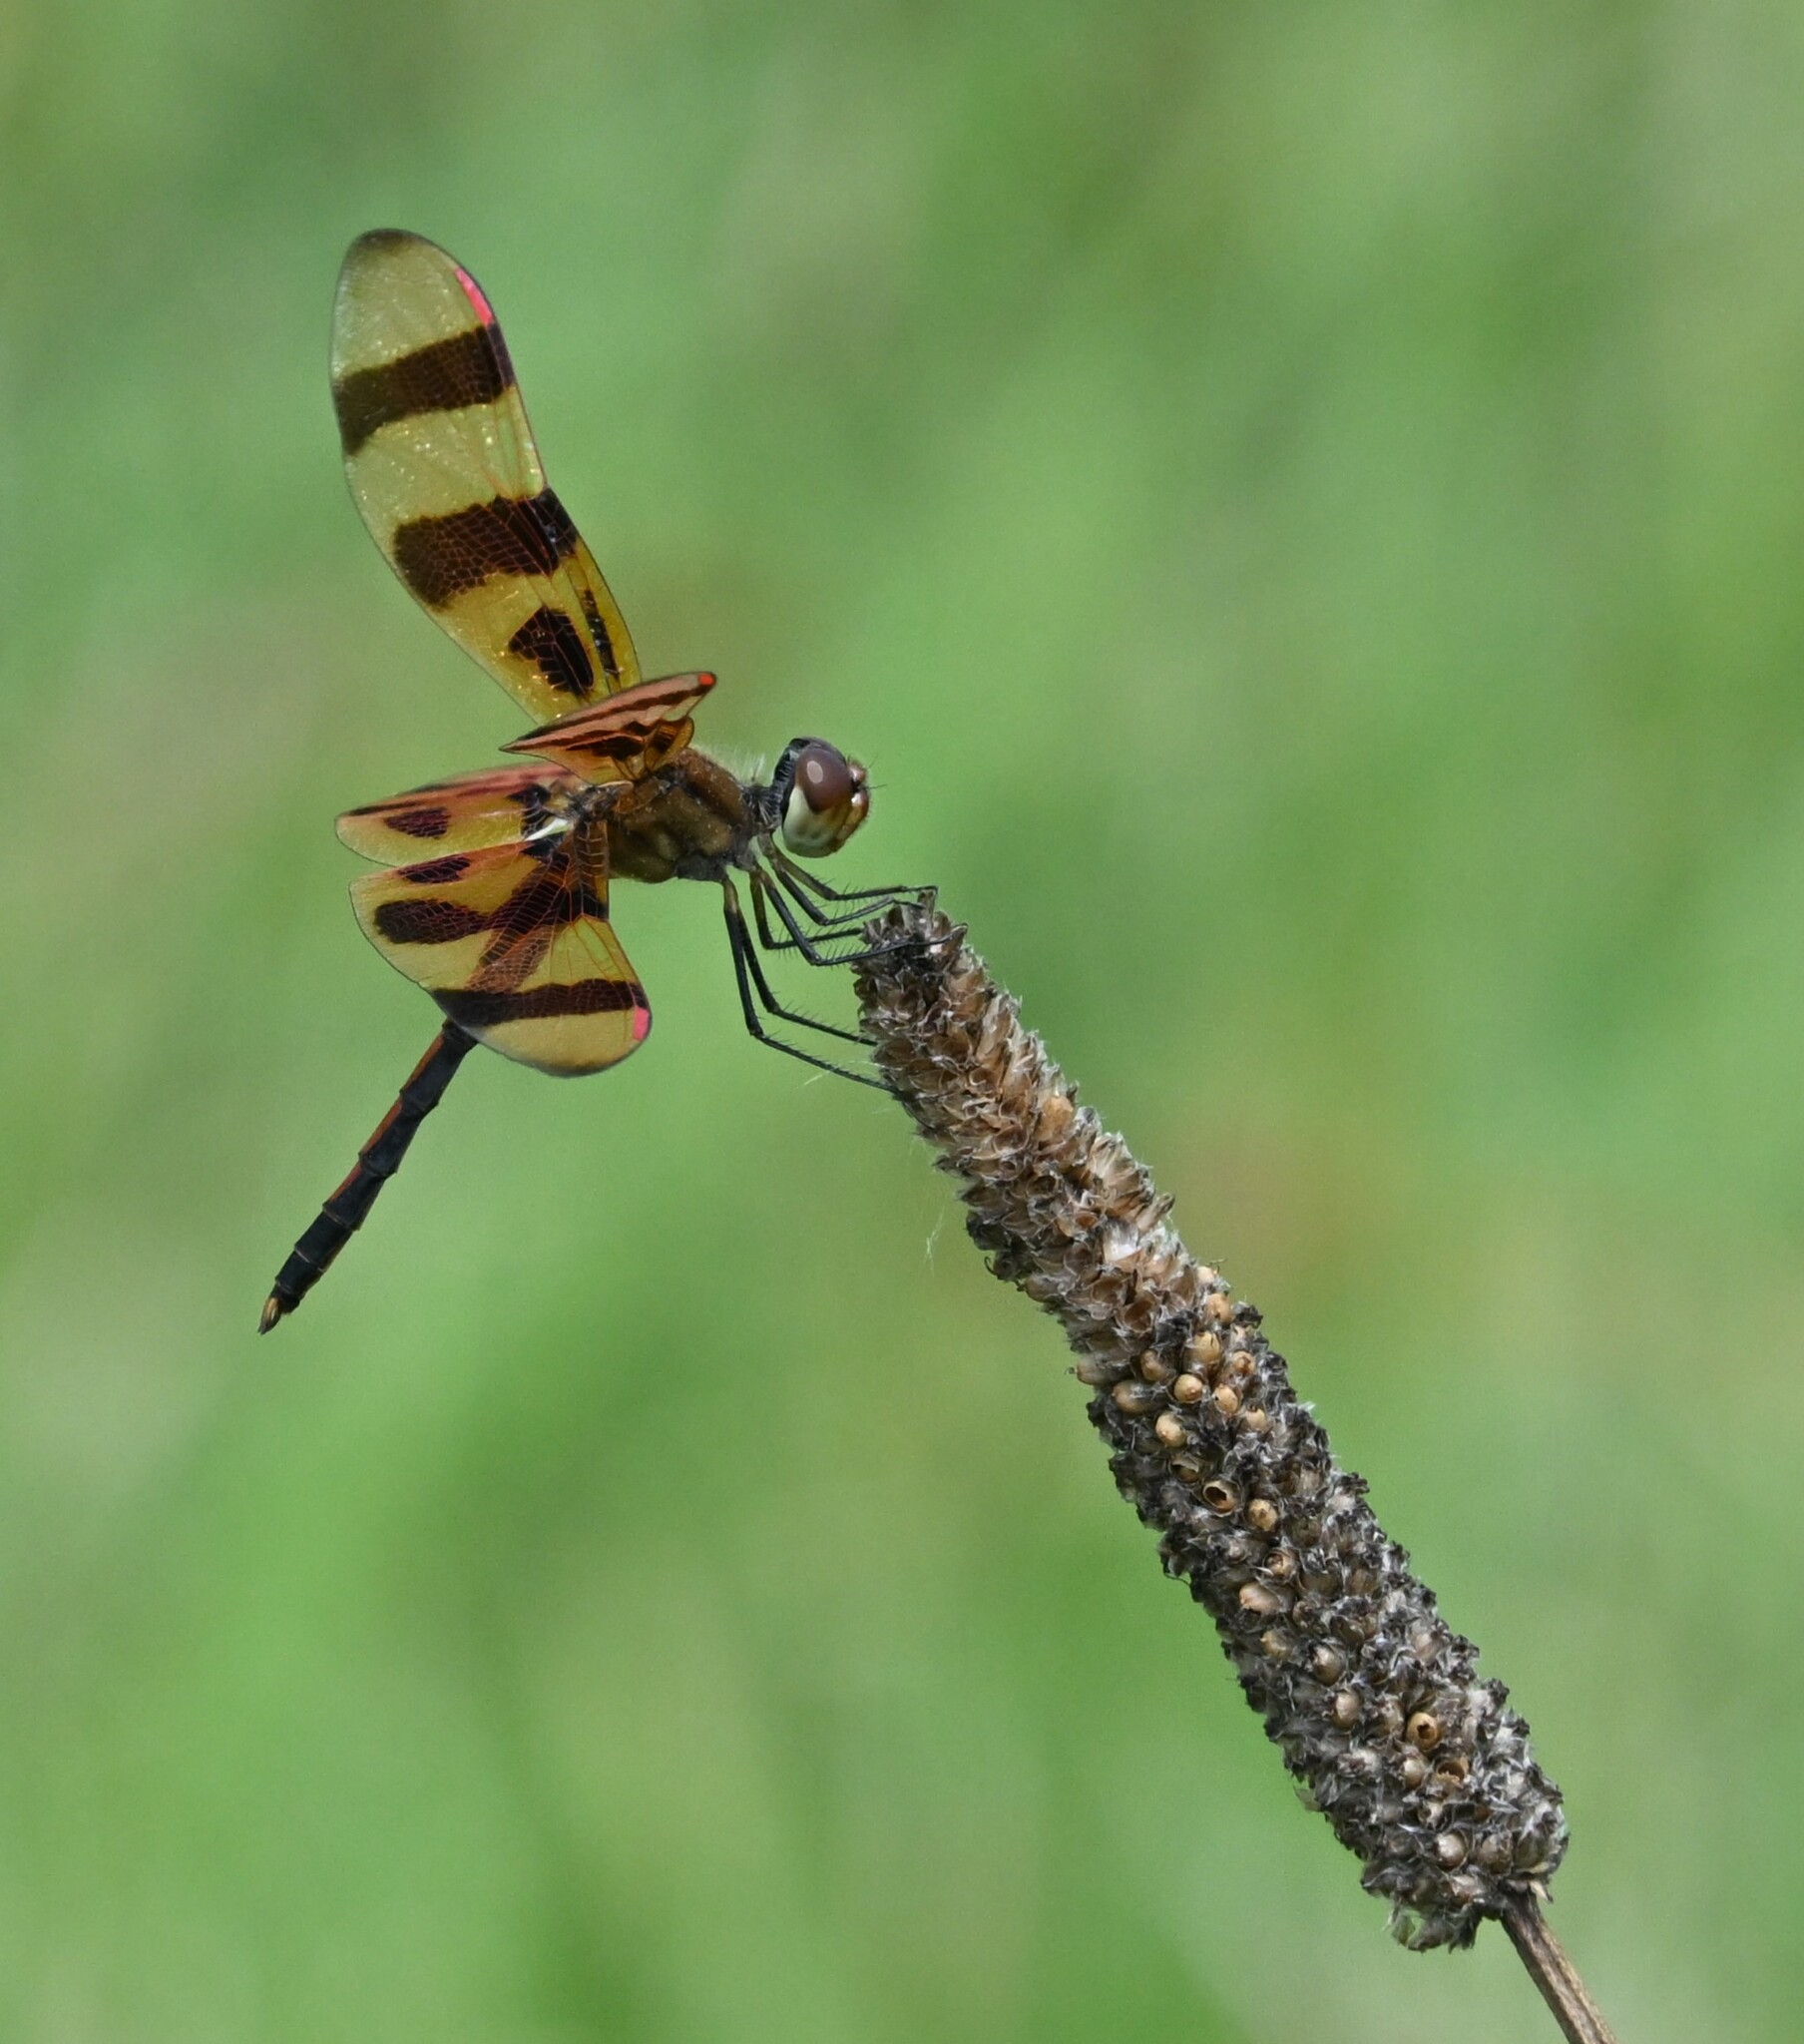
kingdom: Animalia
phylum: Arthropoda
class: Insecta
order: Odonata
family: Libellulidae
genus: Celithemis
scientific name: Celithemis eponina
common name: Halloween pennant
